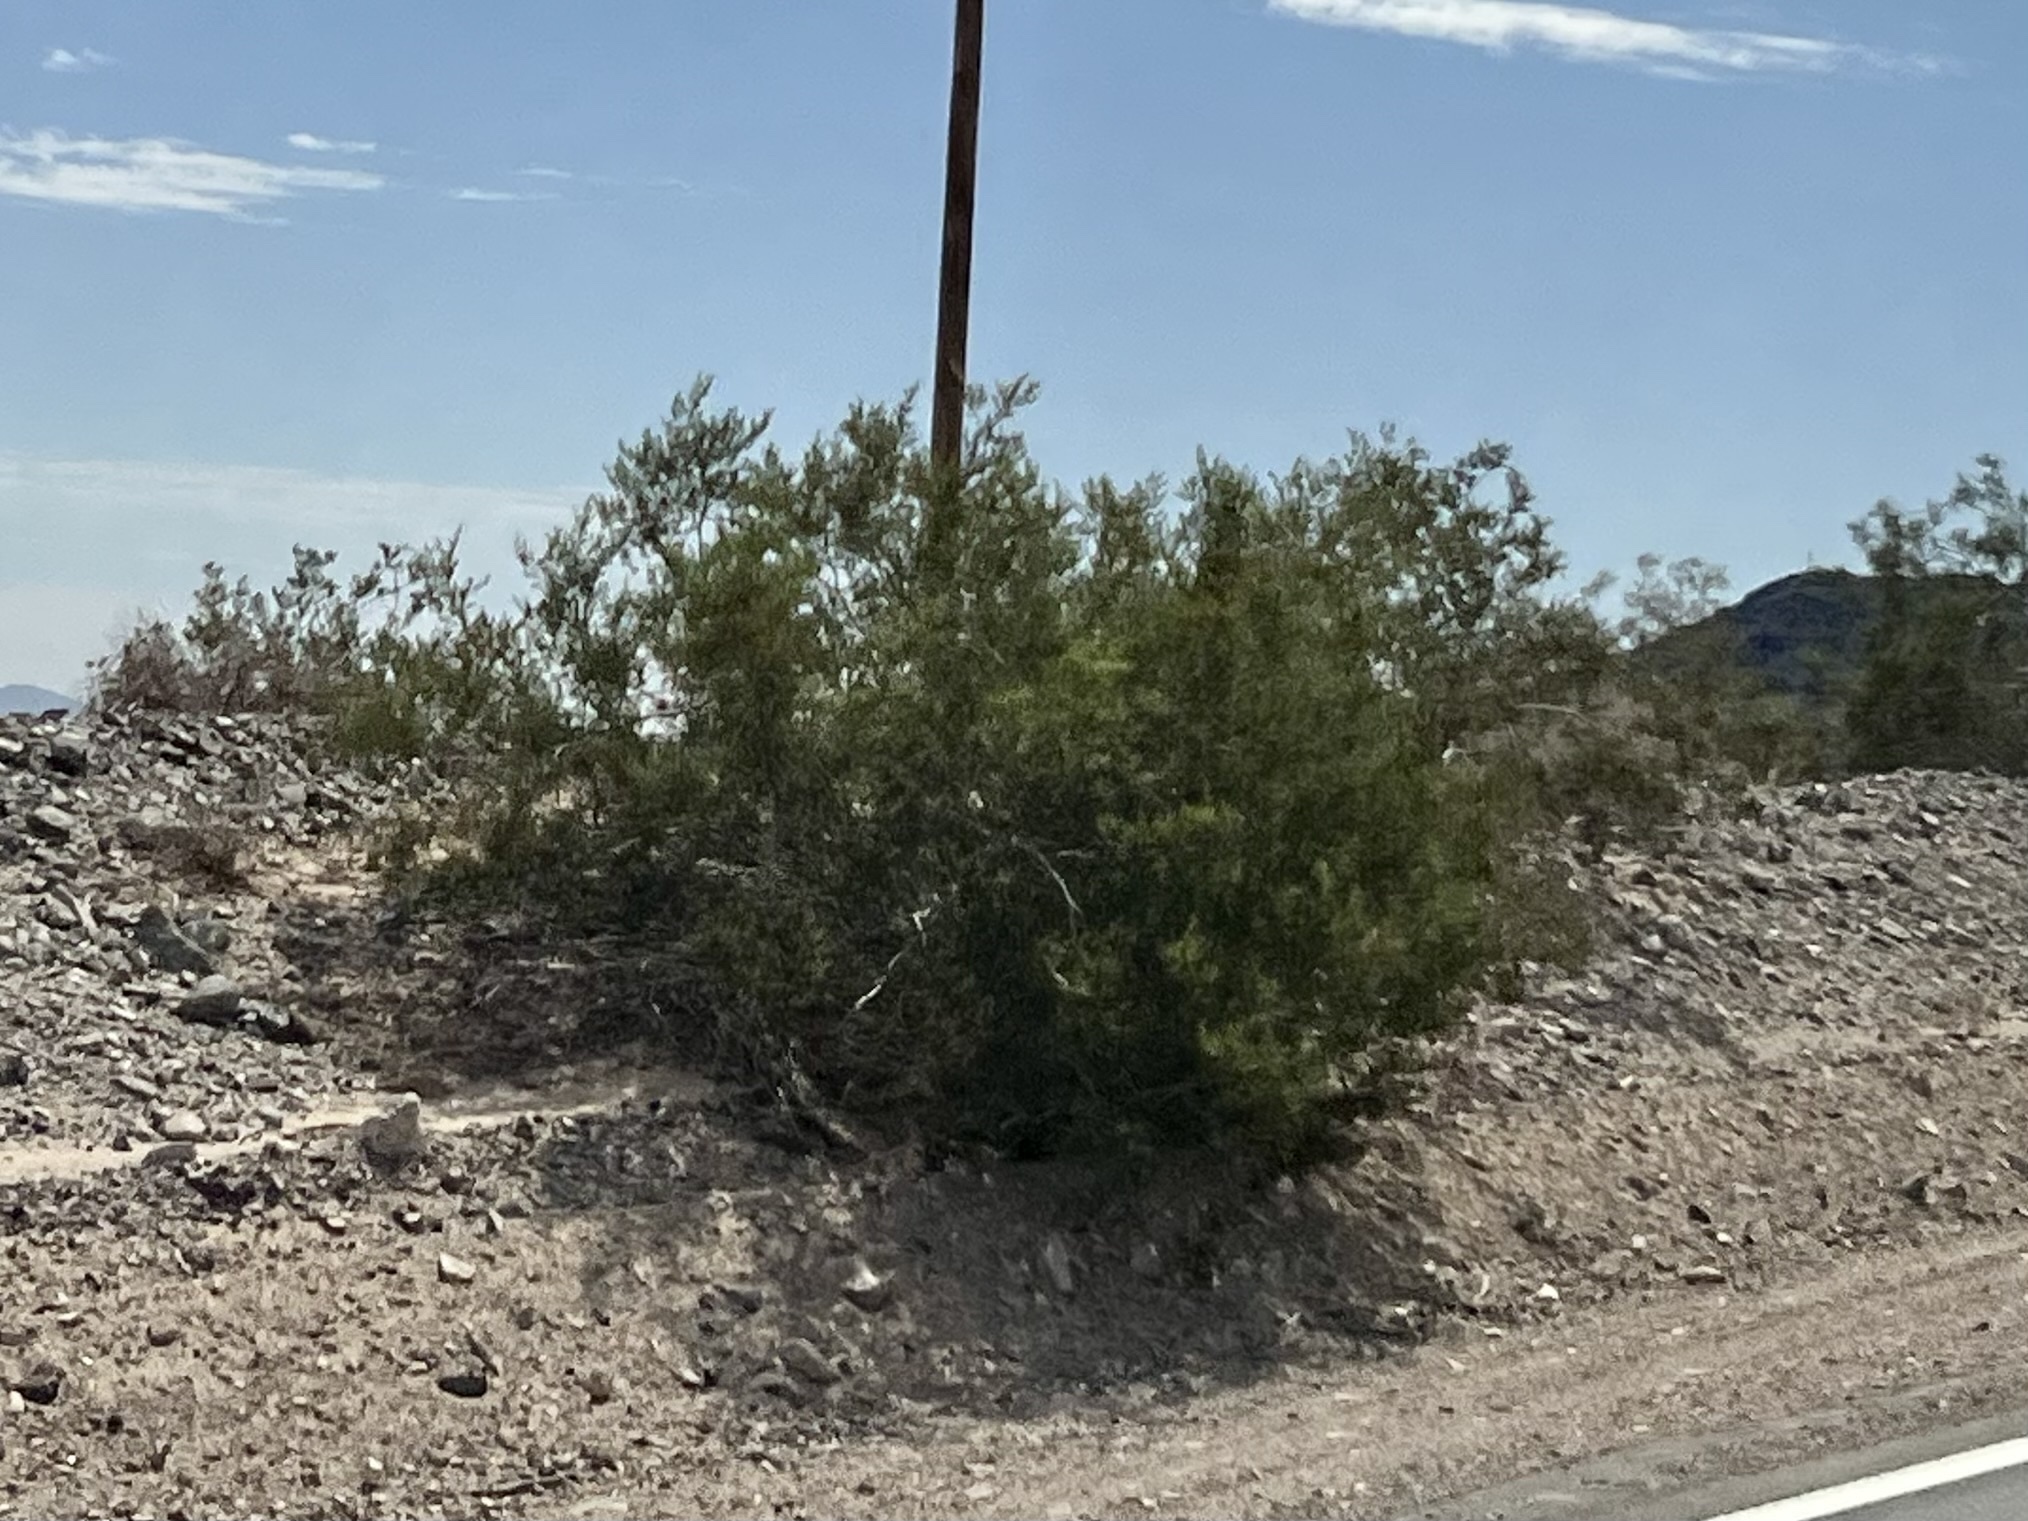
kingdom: Plantae
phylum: Tracheophyta
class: Magnoliopsida
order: Zygophyllales
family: Zygophyllaceae
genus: Larrea
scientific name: Larrea tridentata
